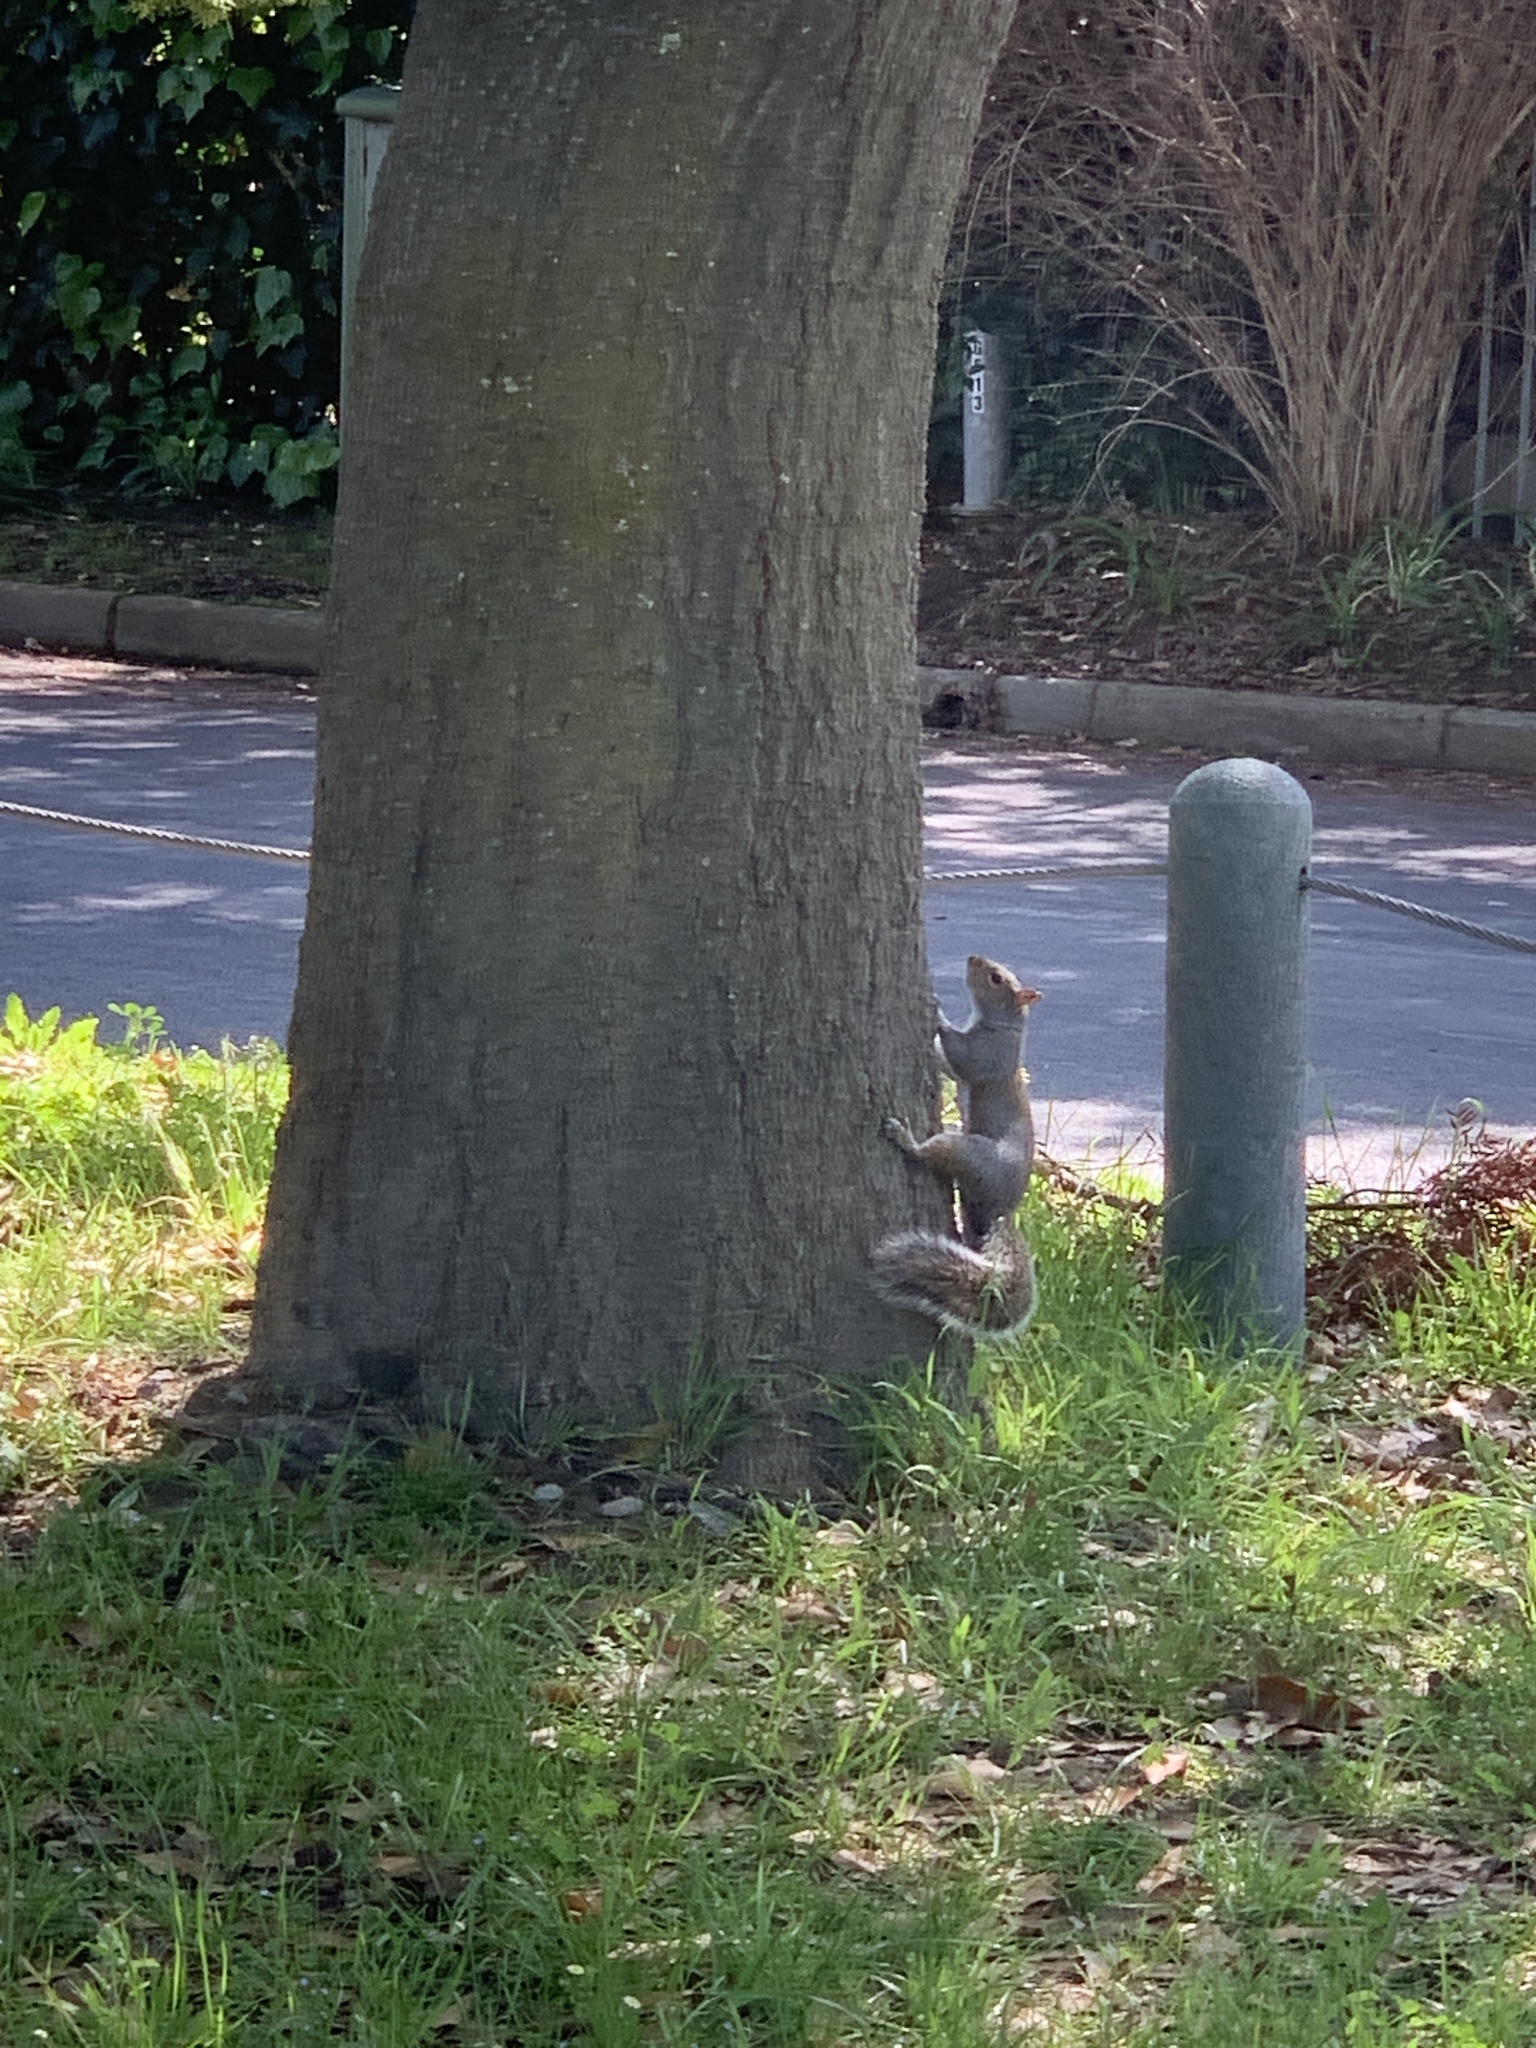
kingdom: Animalia
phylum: Chordata
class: Mammalia
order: Rodentia
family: Sciuridae
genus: Sciurus
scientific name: Sciurus carolinensis
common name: Eastern gray squirrel
